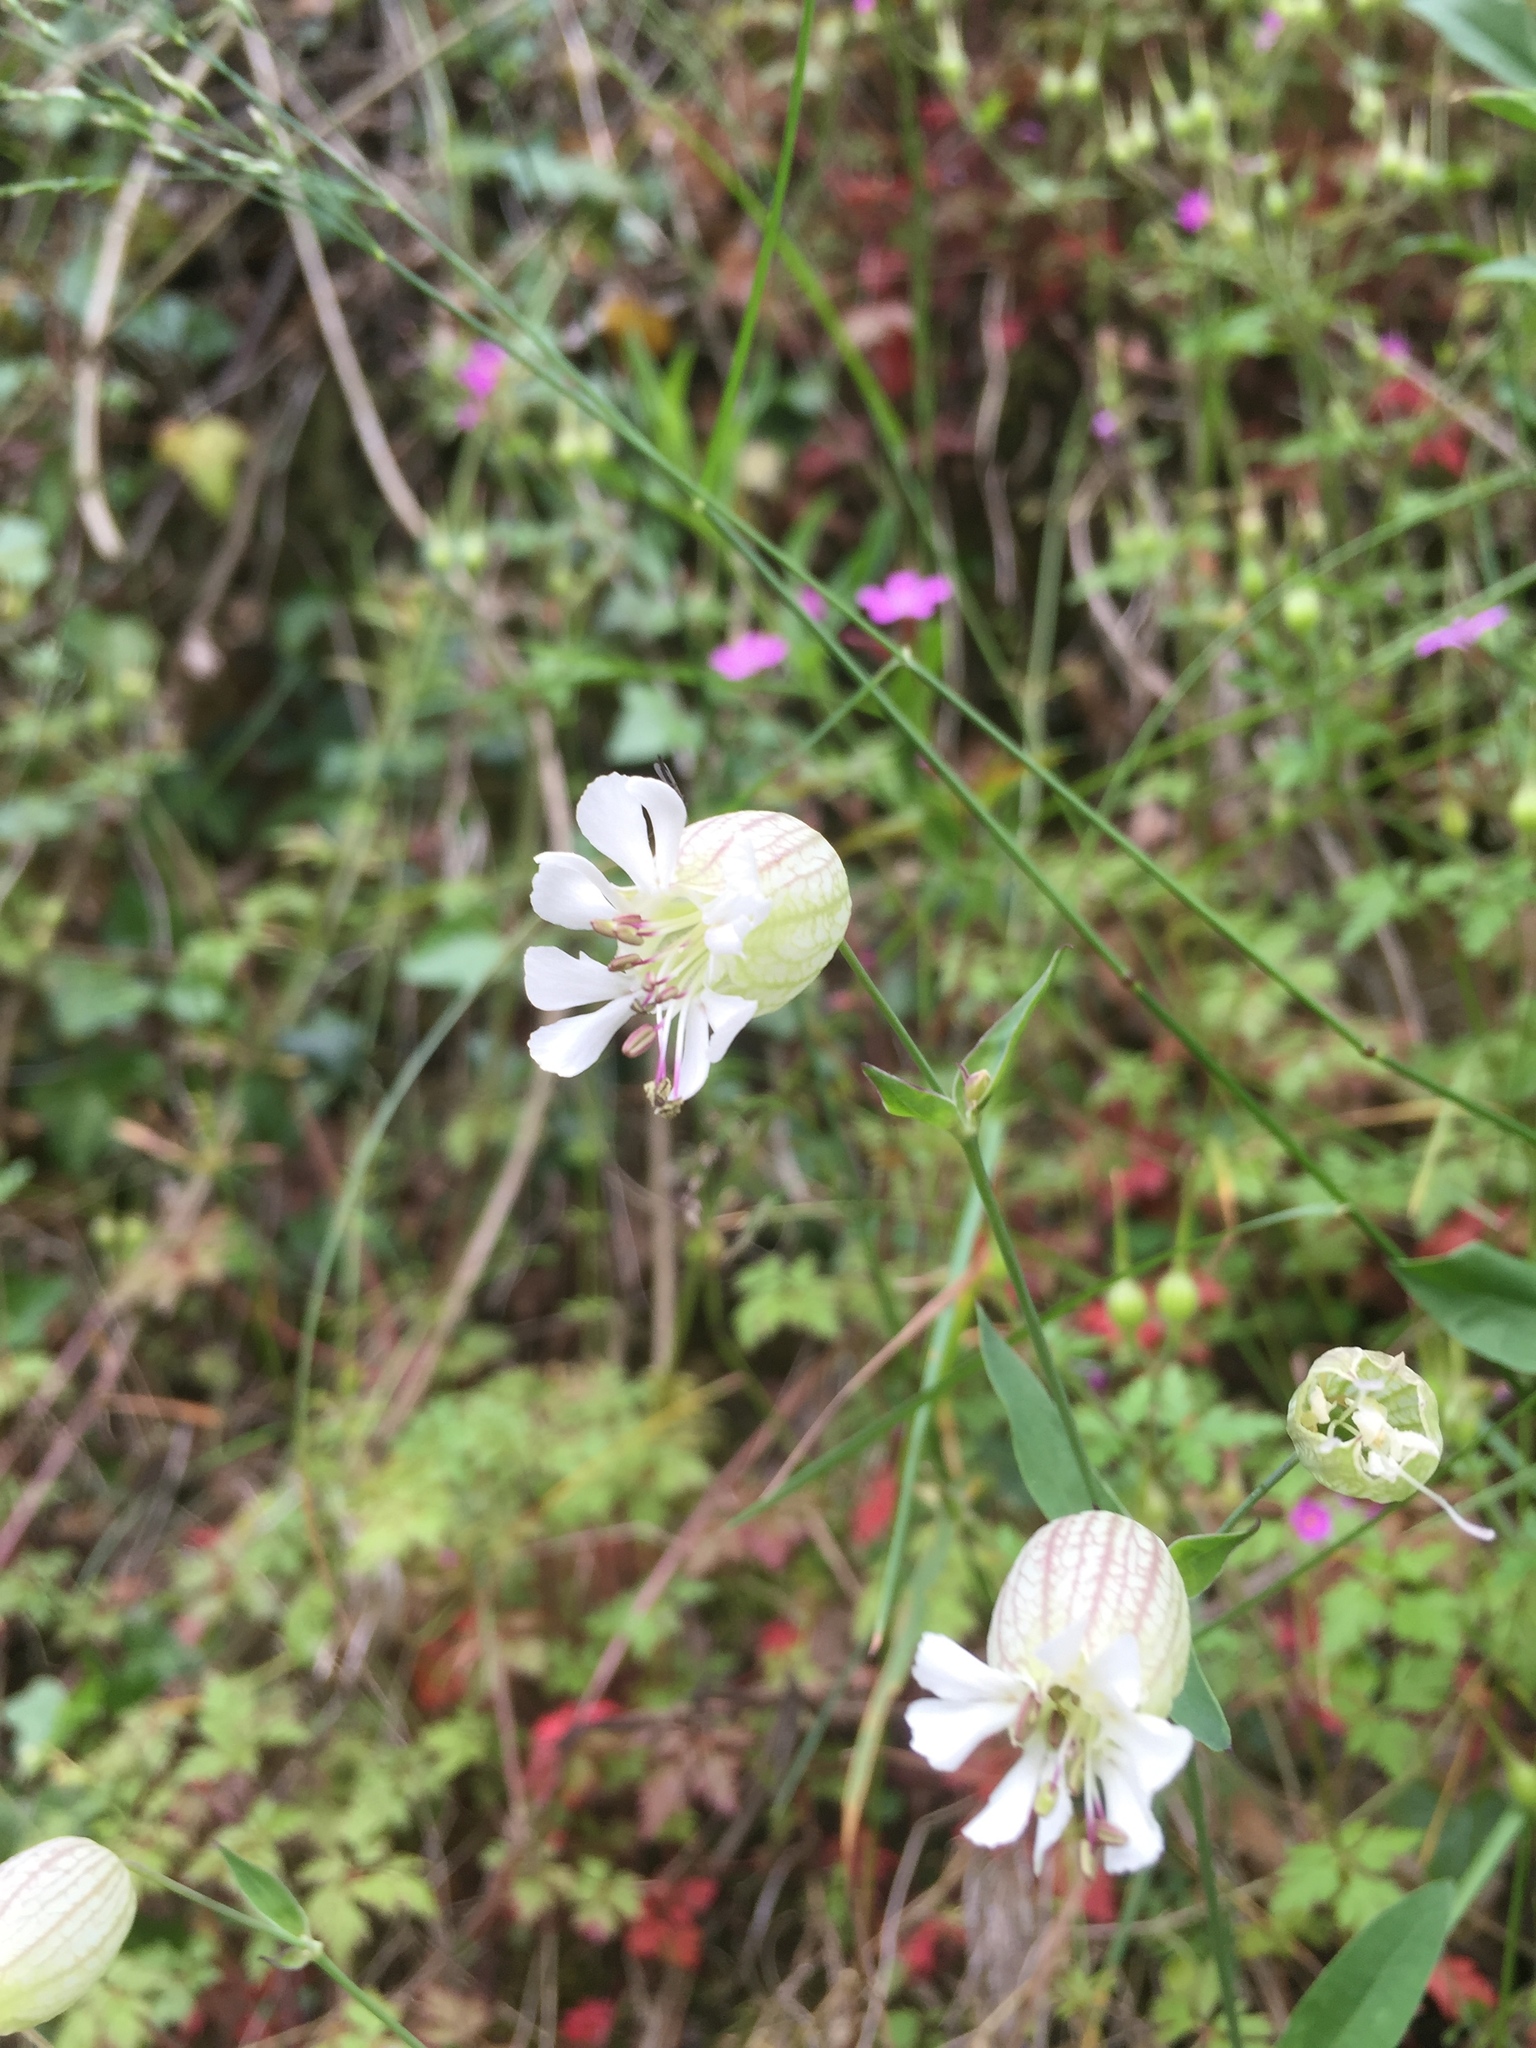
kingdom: Plantae
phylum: Tracheophyta
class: Magnoliopsida
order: Caryophyllales
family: Caryophyllaceae
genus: Silene
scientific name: Silene vulgaris
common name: Bladder campion
